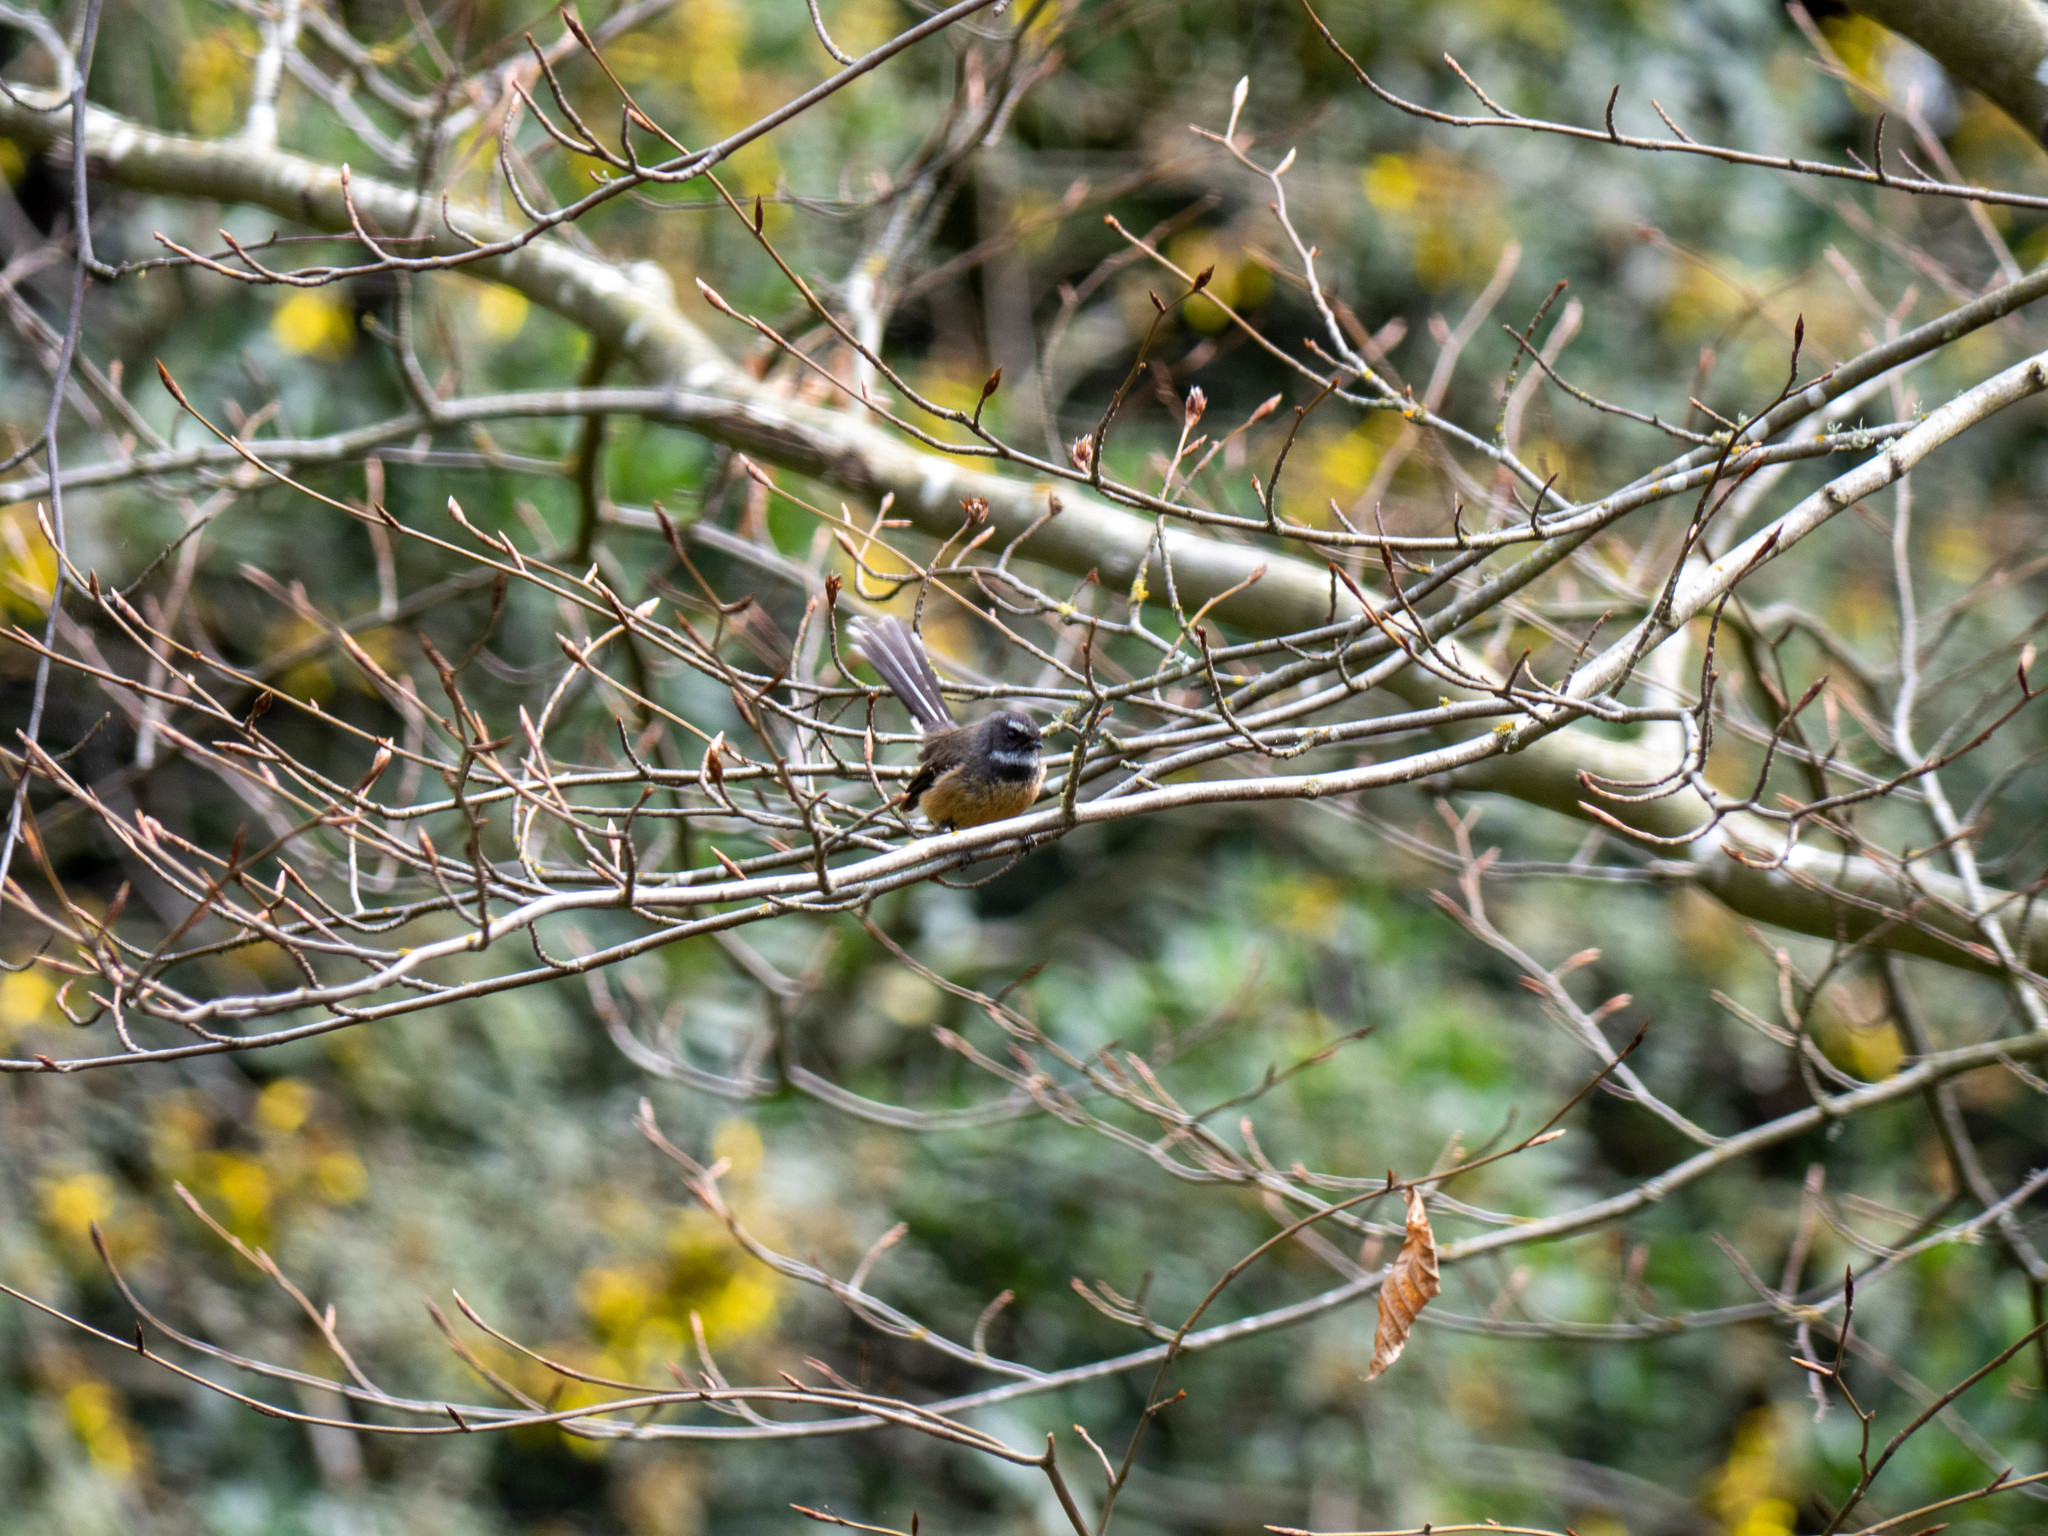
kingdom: Animalia
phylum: Chordata
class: Aves
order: Passeriformes
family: Rhipiduridae
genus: Rhipidura
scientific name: Rhipidura fuliginosa
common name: New zealand fantail
